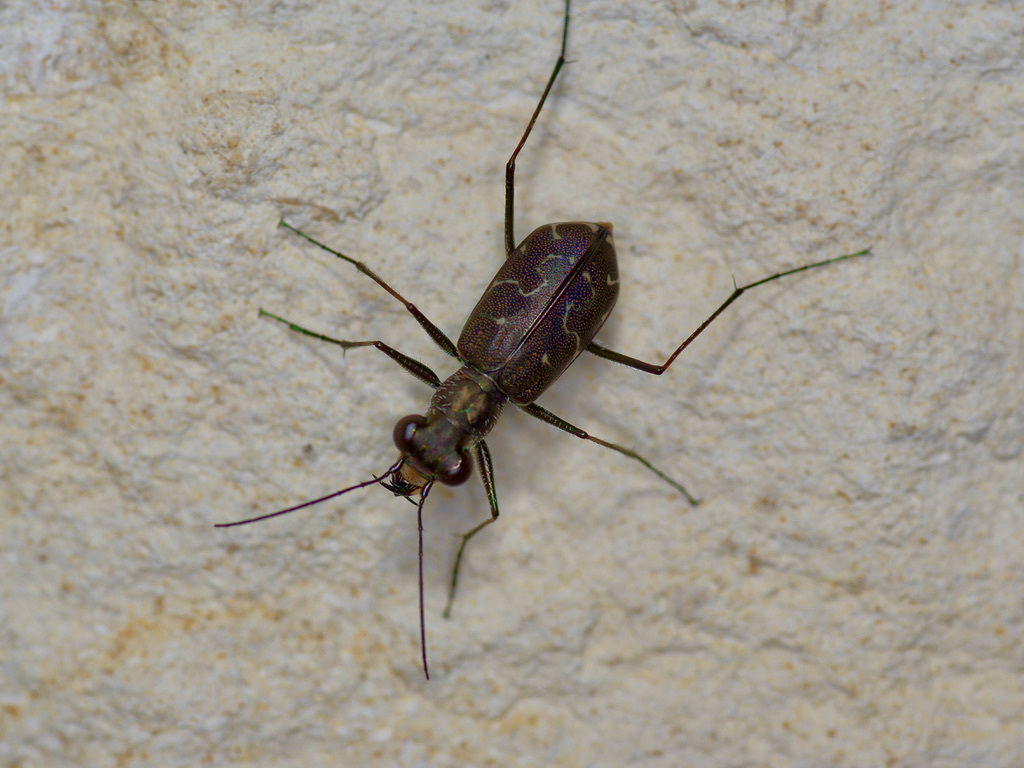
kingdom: Animalia
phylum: Arthropoda
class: Insecta
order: Coleoptera
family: Carabidae
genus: Cicindela
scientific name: Cicindela trifasciata
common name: Mudflat tiger beetle
